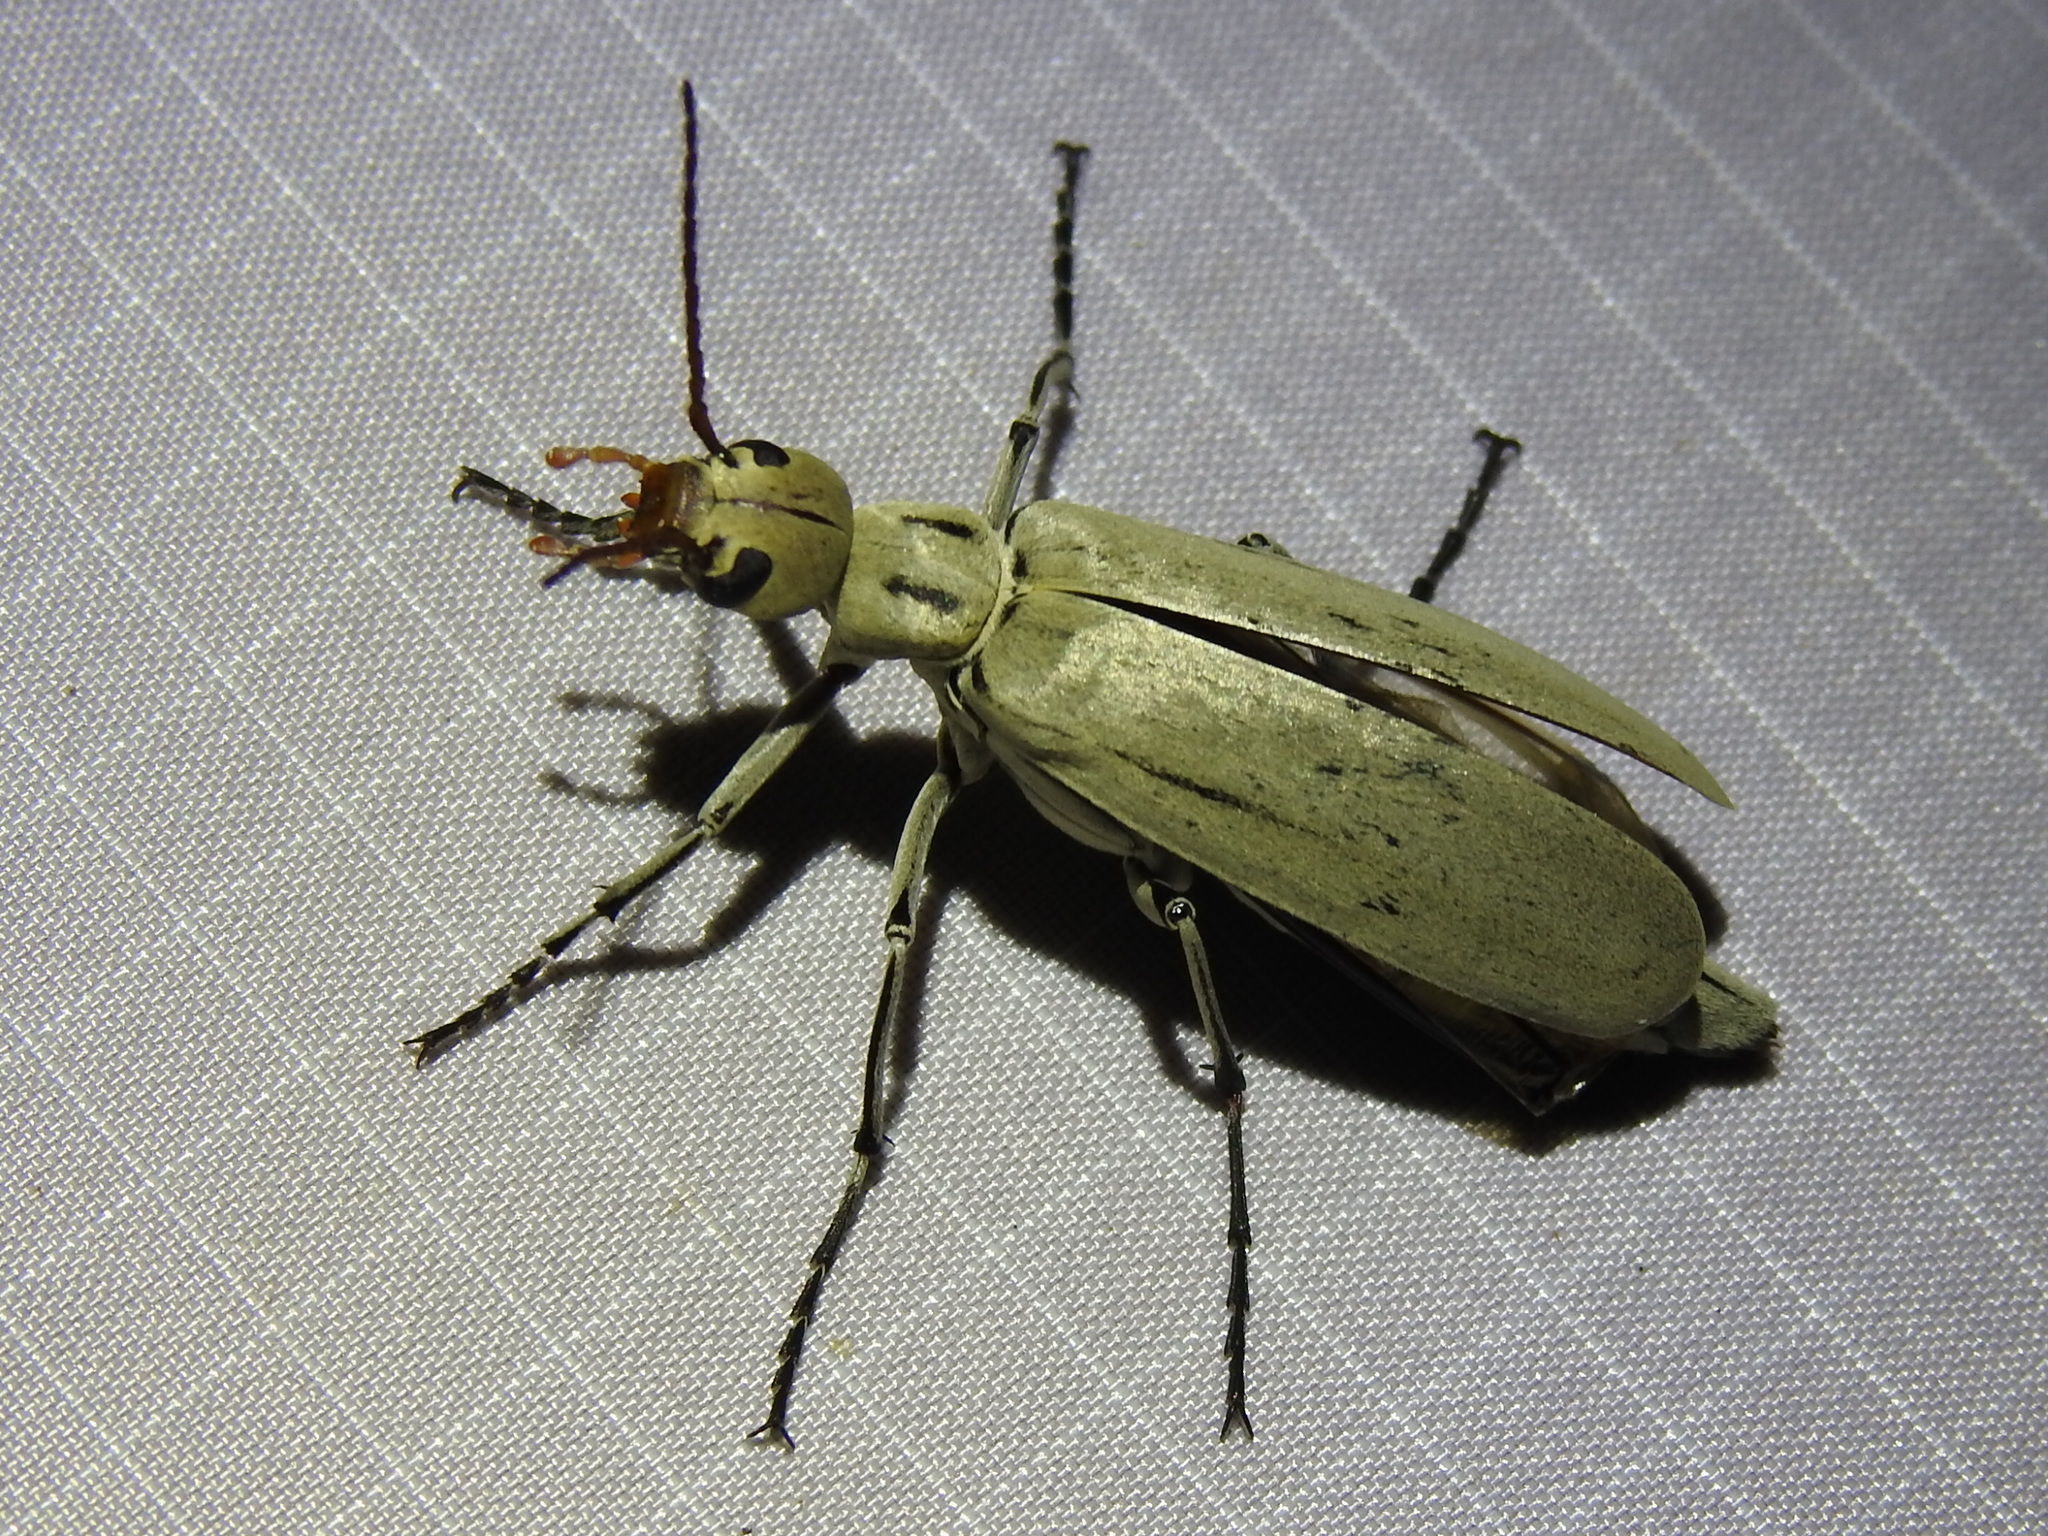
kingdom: Animalia
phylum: Arthropoda
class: Insecta
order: Coleoptera
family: Meloidae
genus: Epicauta
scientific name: Epicauta albida
